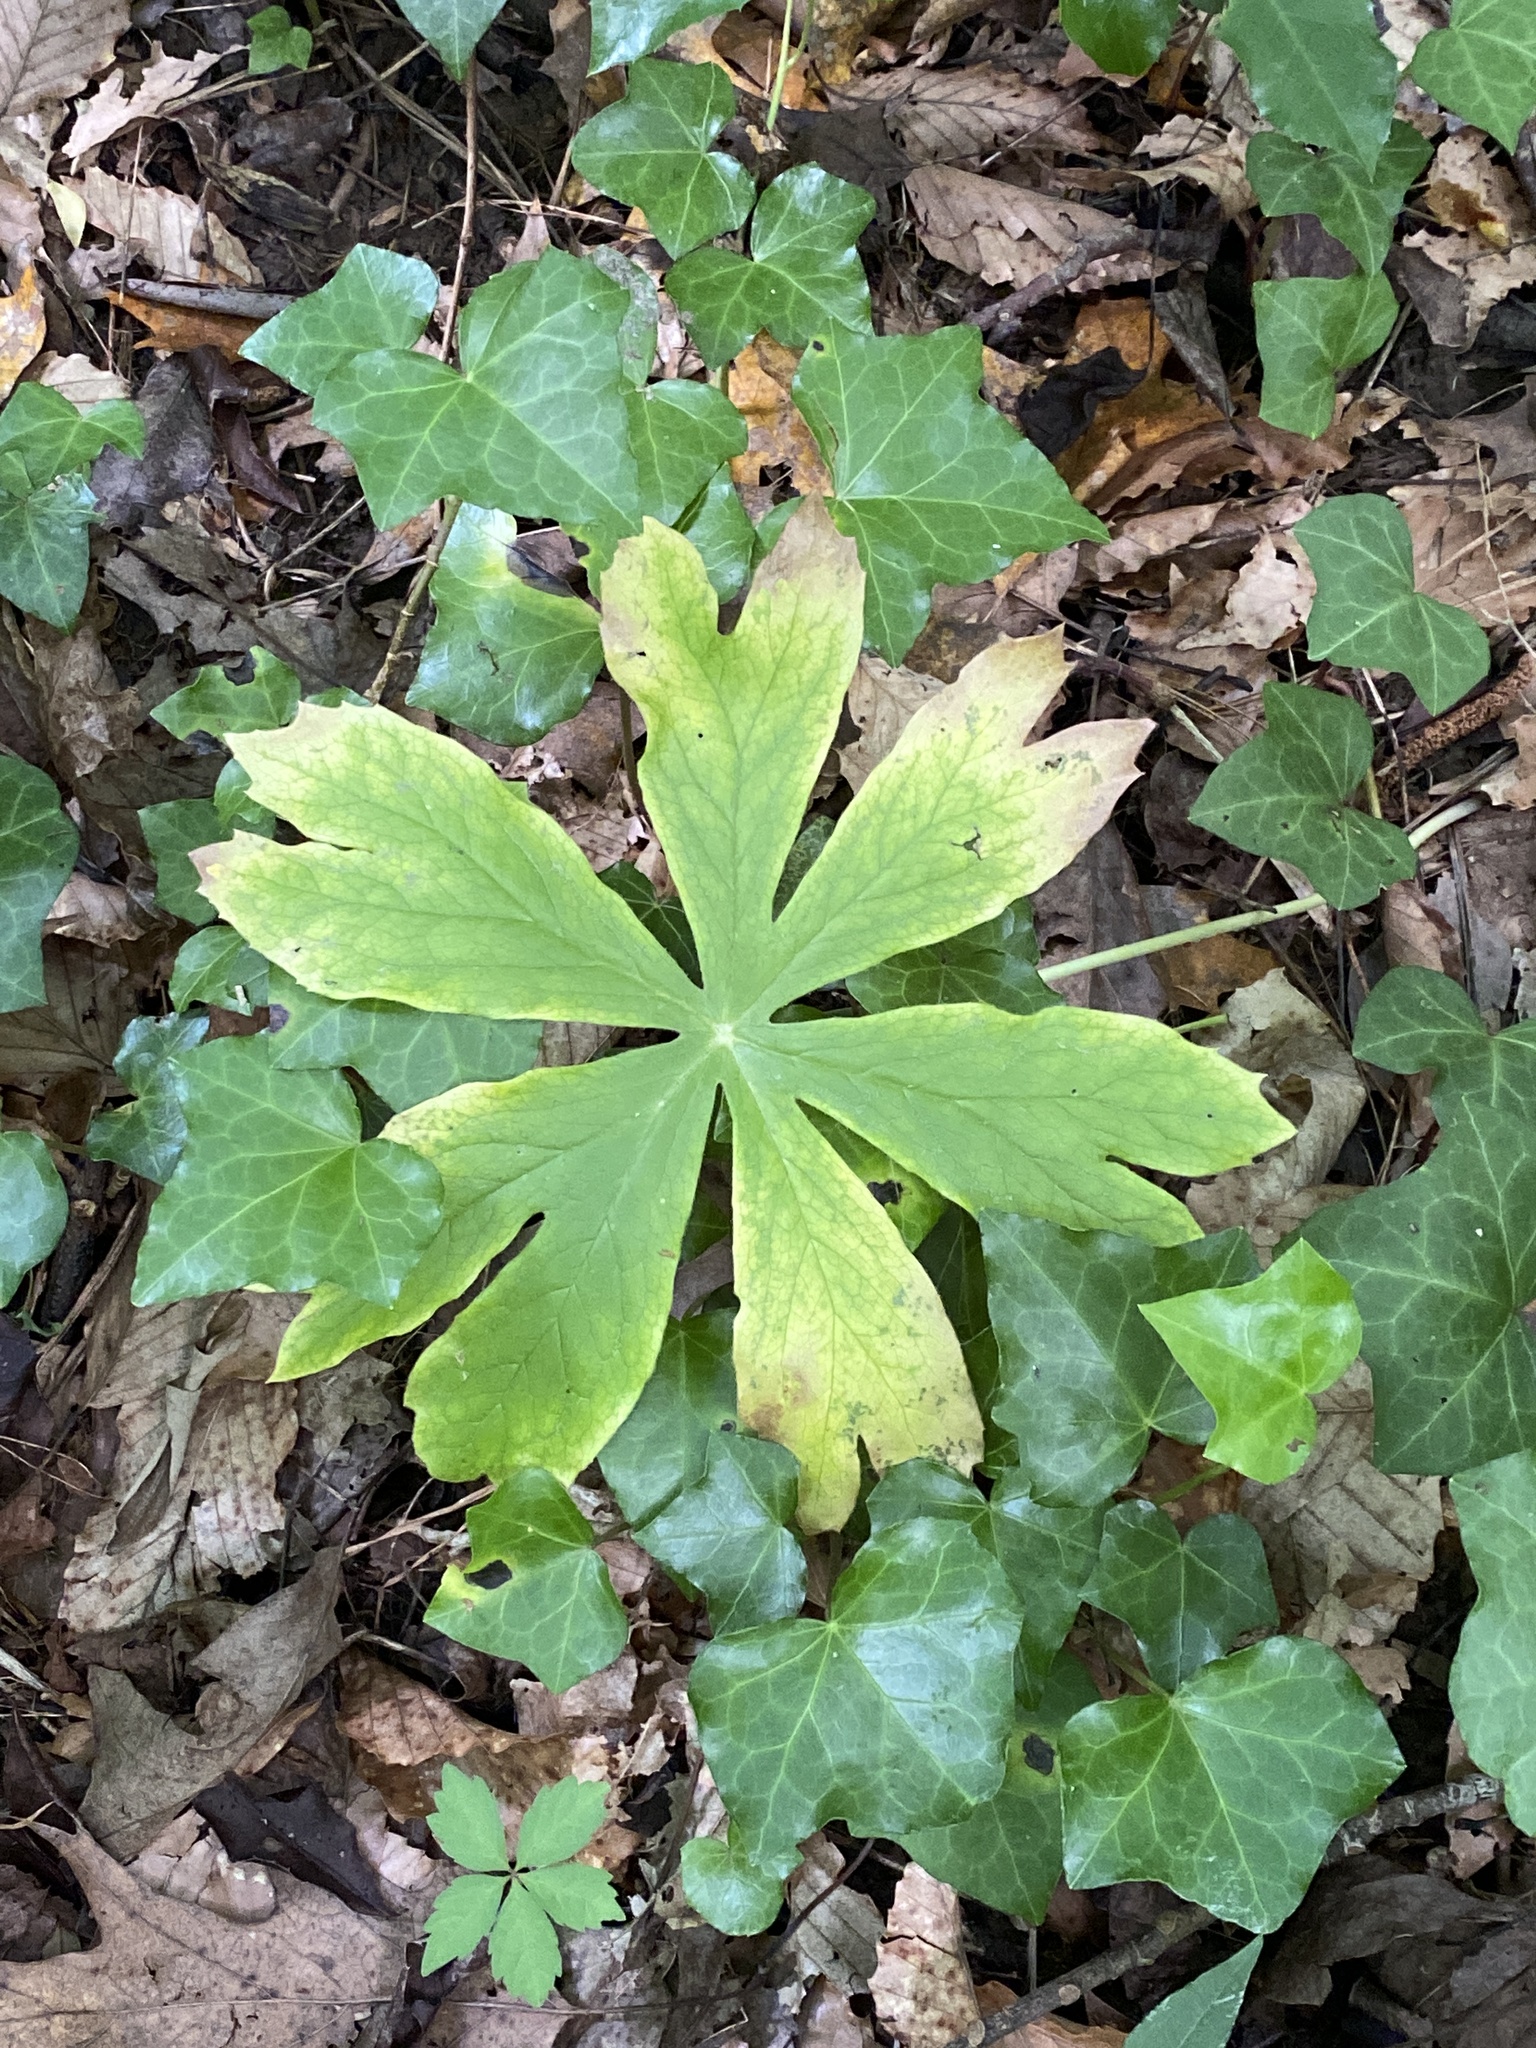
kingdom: Plantae
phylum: Tracheophyta
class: Magnoliopsida
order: Ranunculales
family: Berberidaceae
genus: Podophyllum
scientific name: Podophyllum peltatum
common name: Wild mandrake
